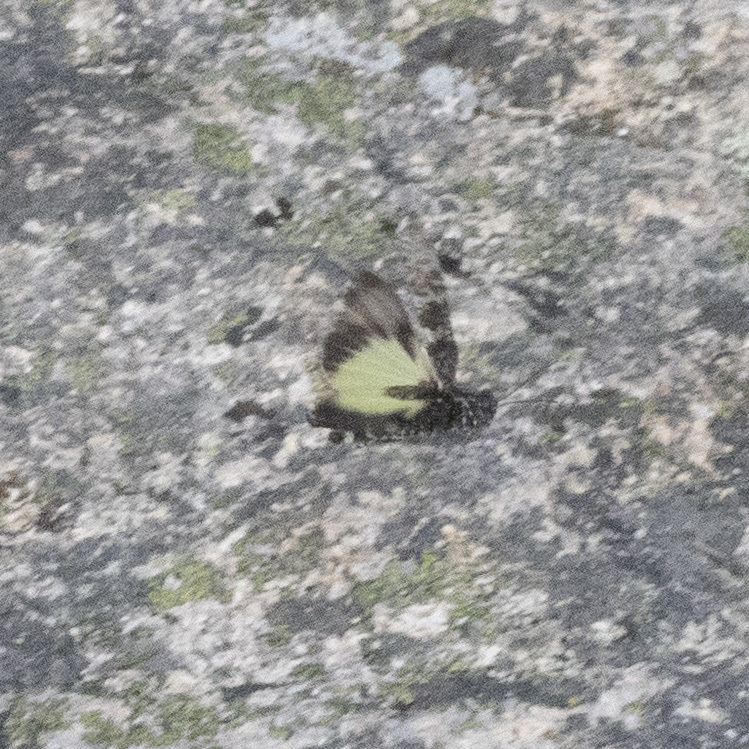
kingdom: Animalia
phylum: Arthropoda
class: Insecta
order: Orthoptera
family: Acrididae
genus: Trimerotropis
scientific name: Trimerotropis verruculata
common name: Crackling forest grasshopper
